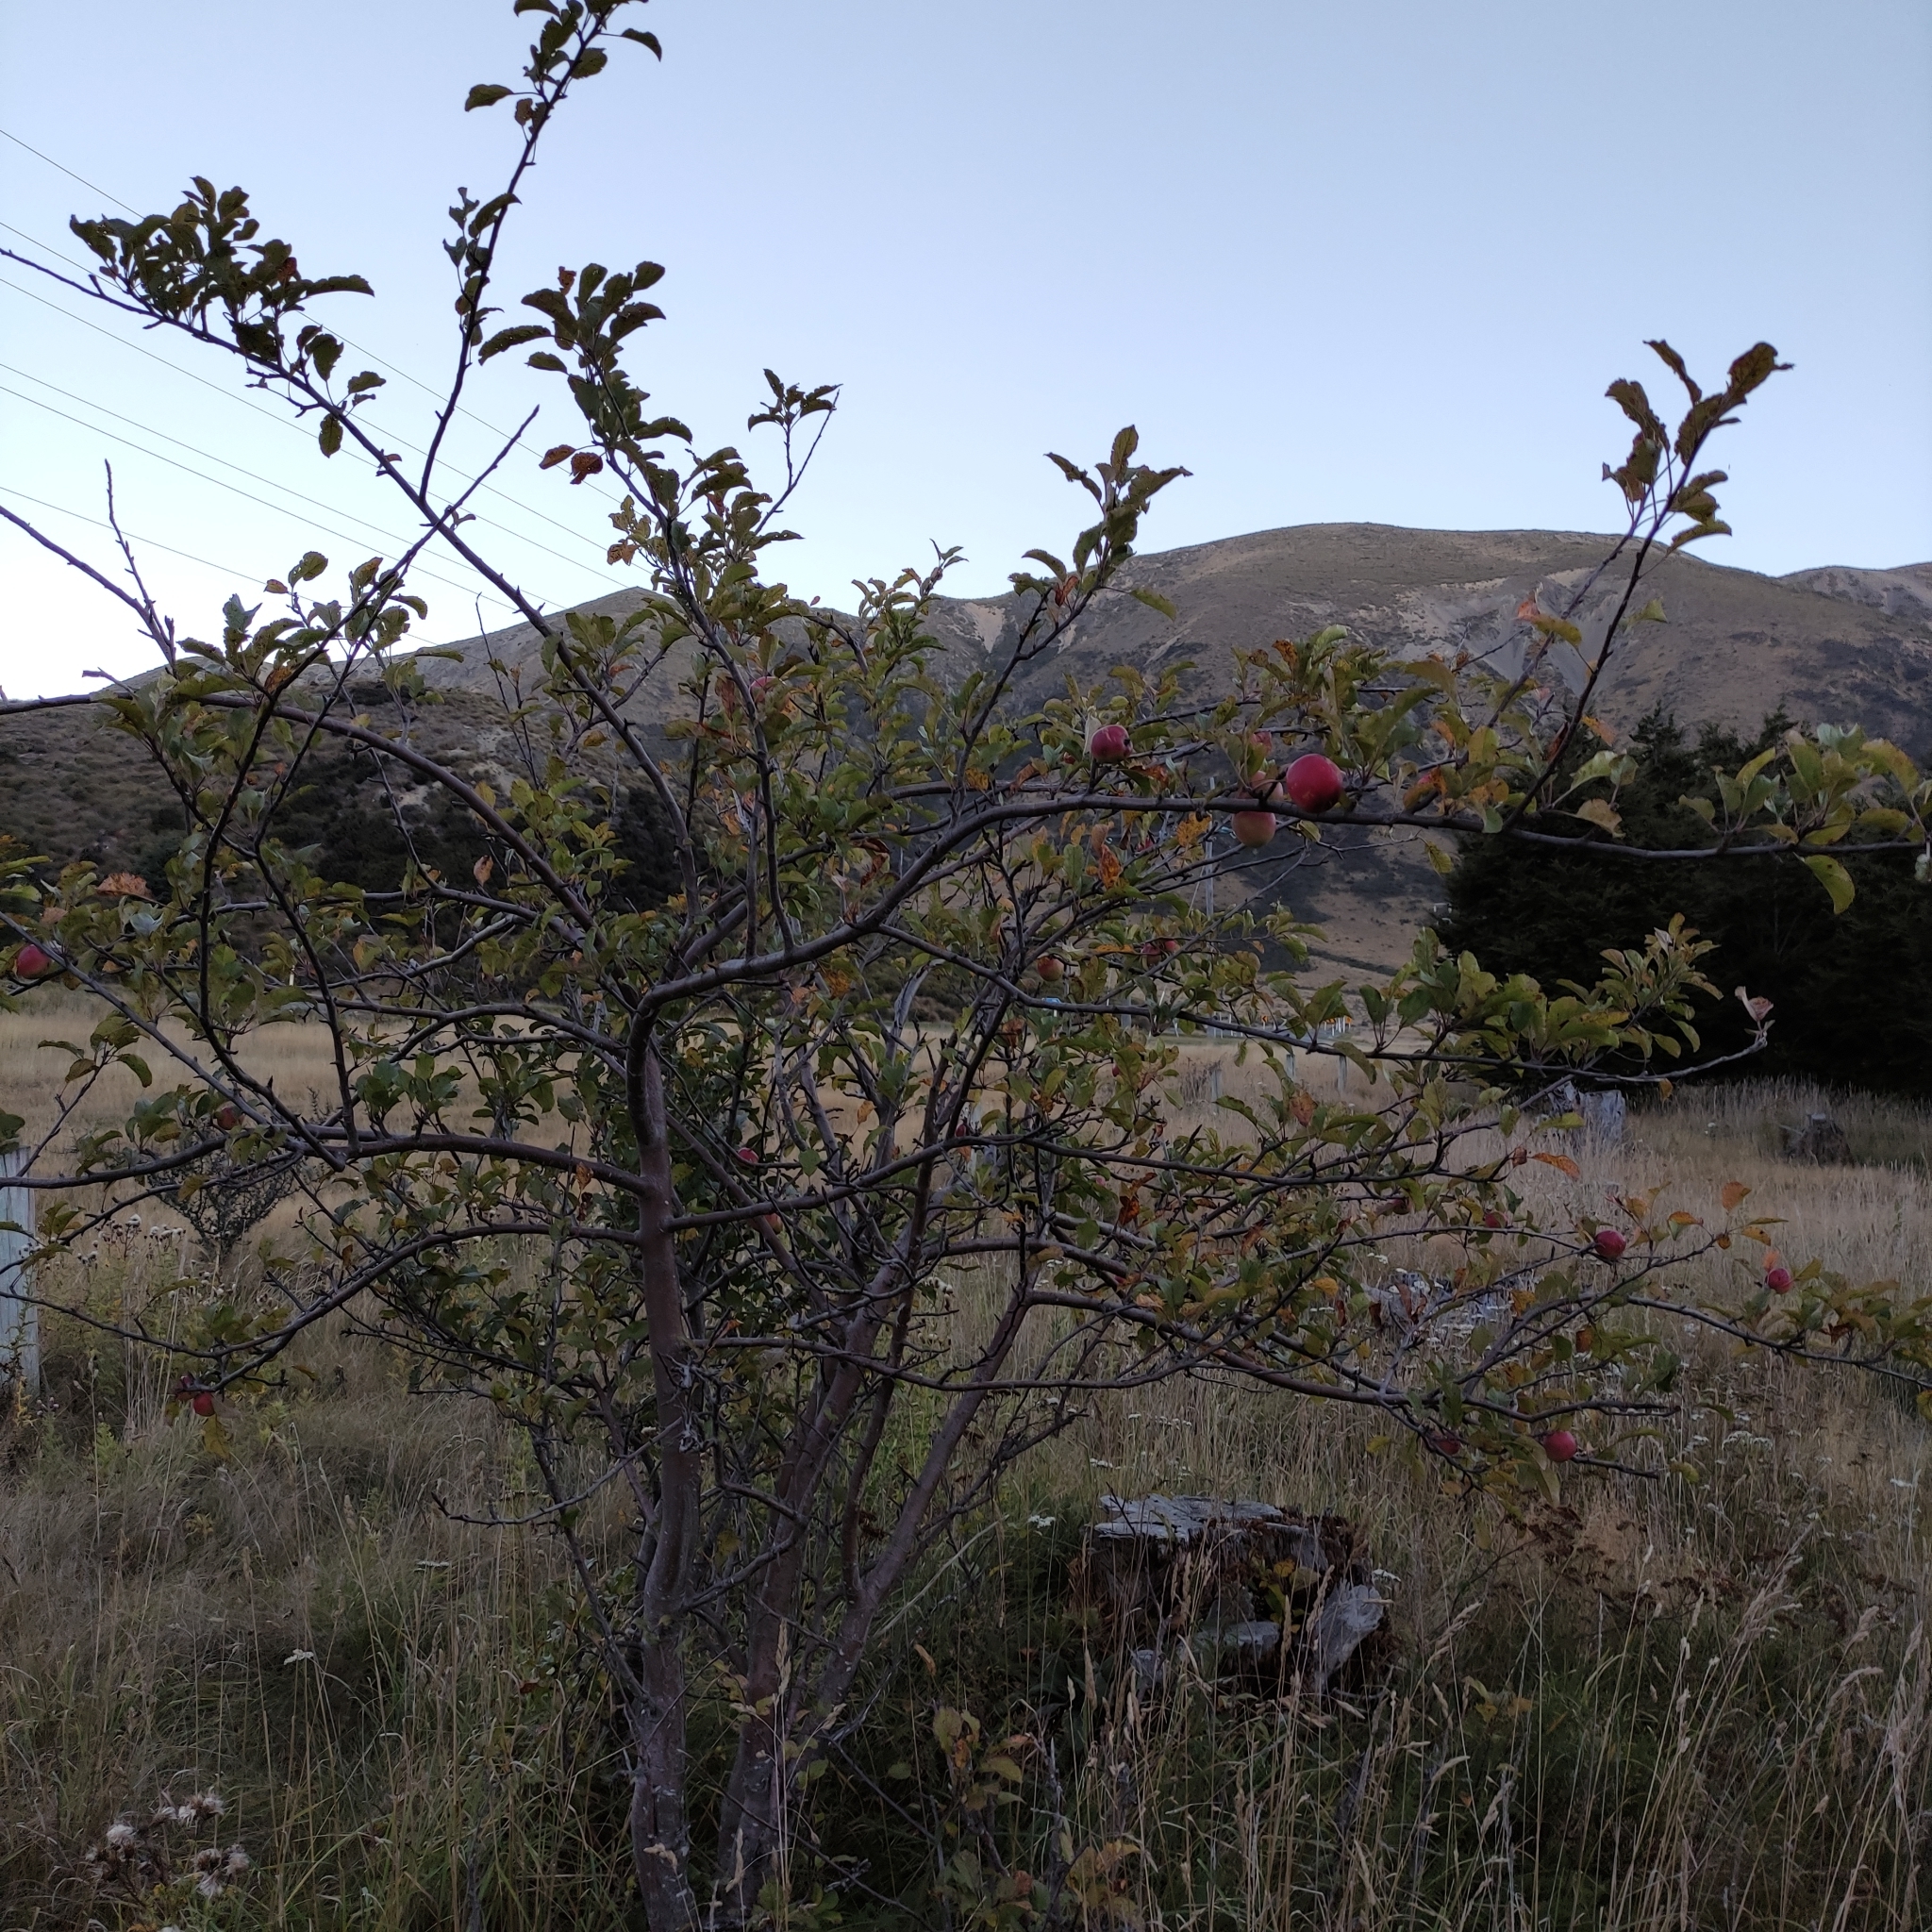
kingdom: Plantae
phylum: Tracheophyta
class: Magnoliopsida
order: Rosales
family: Rosaceae
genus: Malus
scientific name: Malus domestica
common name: Apple
